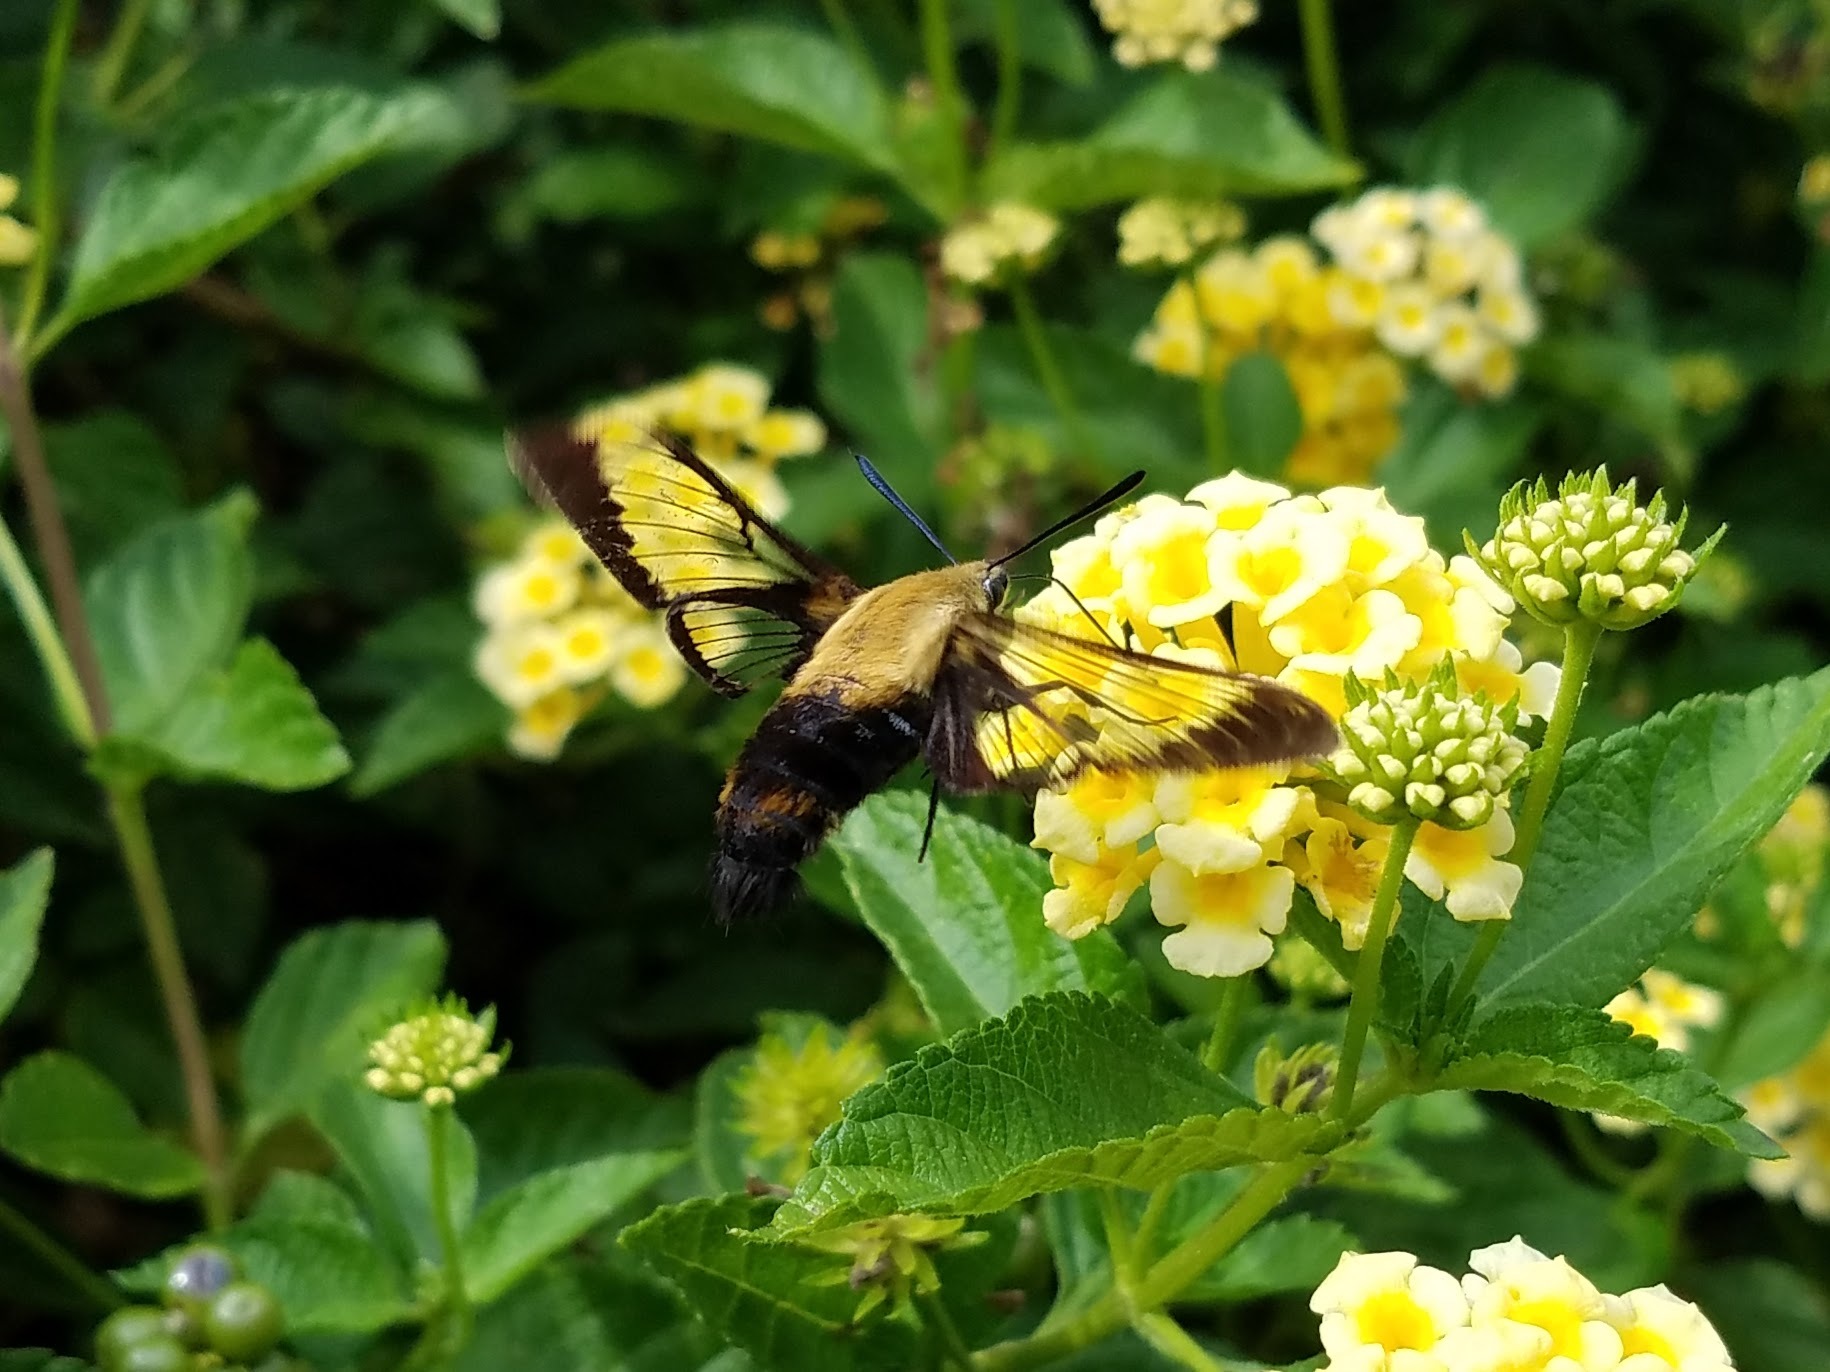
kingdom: Animalia
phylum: Arthropoda
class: Insecta
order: Lepidoptera
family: Sphingidae
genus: Hemaris
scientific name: Hemaris diffinis
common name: Bumblebee moth
